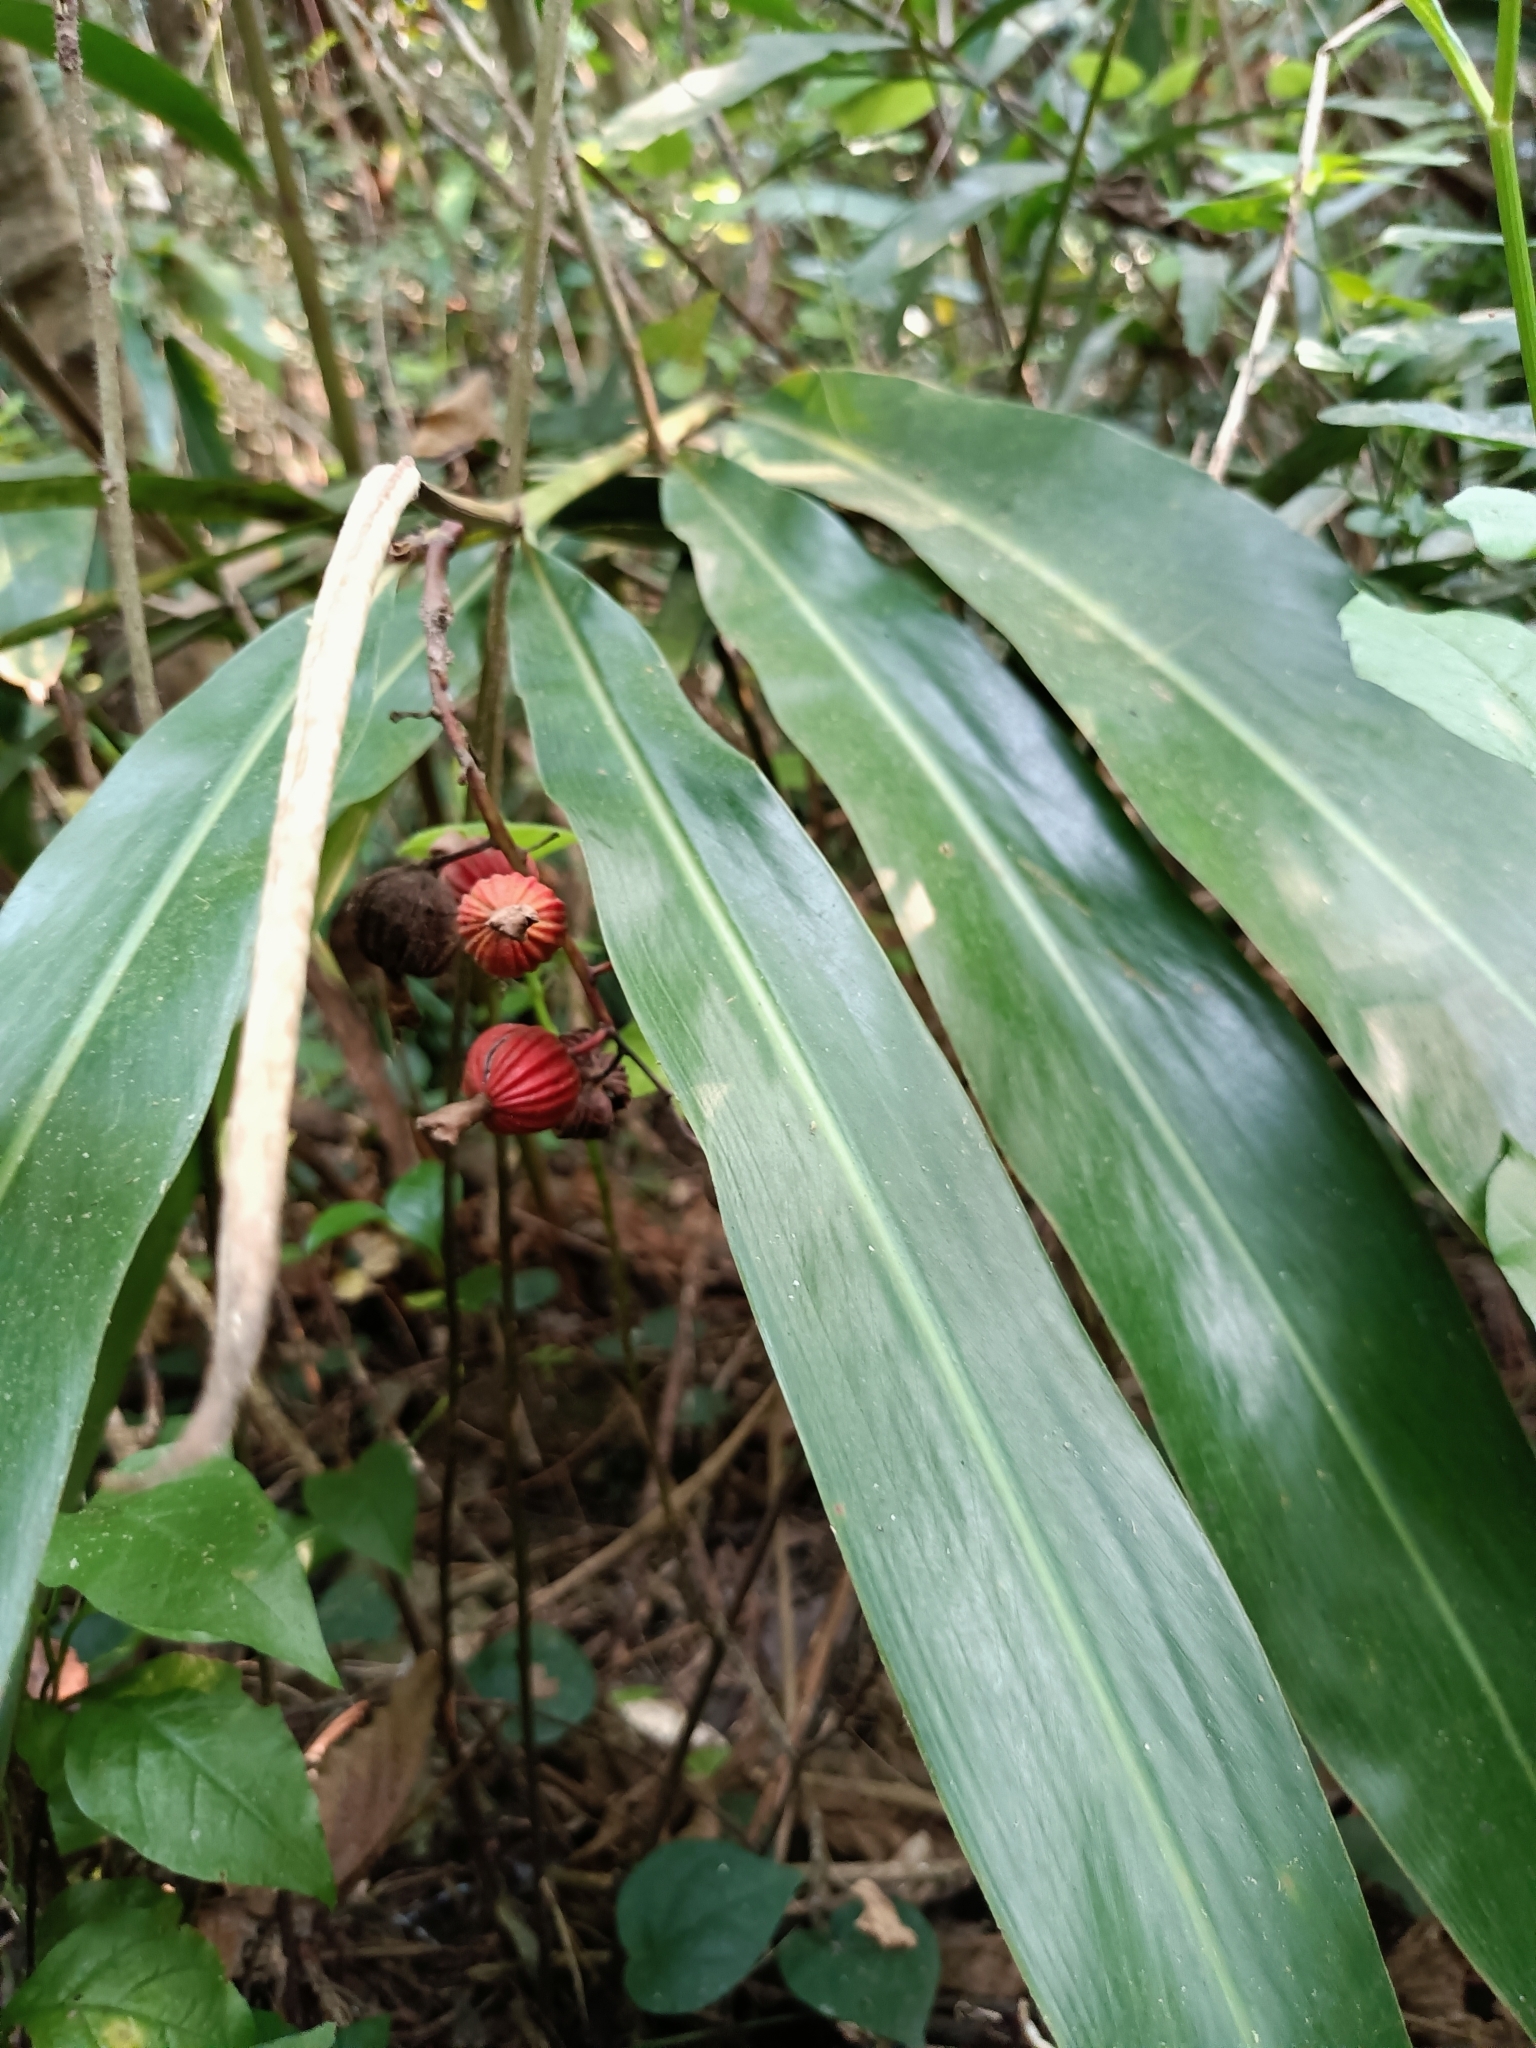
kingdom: Plantae
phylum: Tracheophyta
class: Liliopsida
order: Zingiberales
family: Zingiberaceae
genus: Alpinia
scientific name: Alpinia zerumbet
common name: Shellplant
